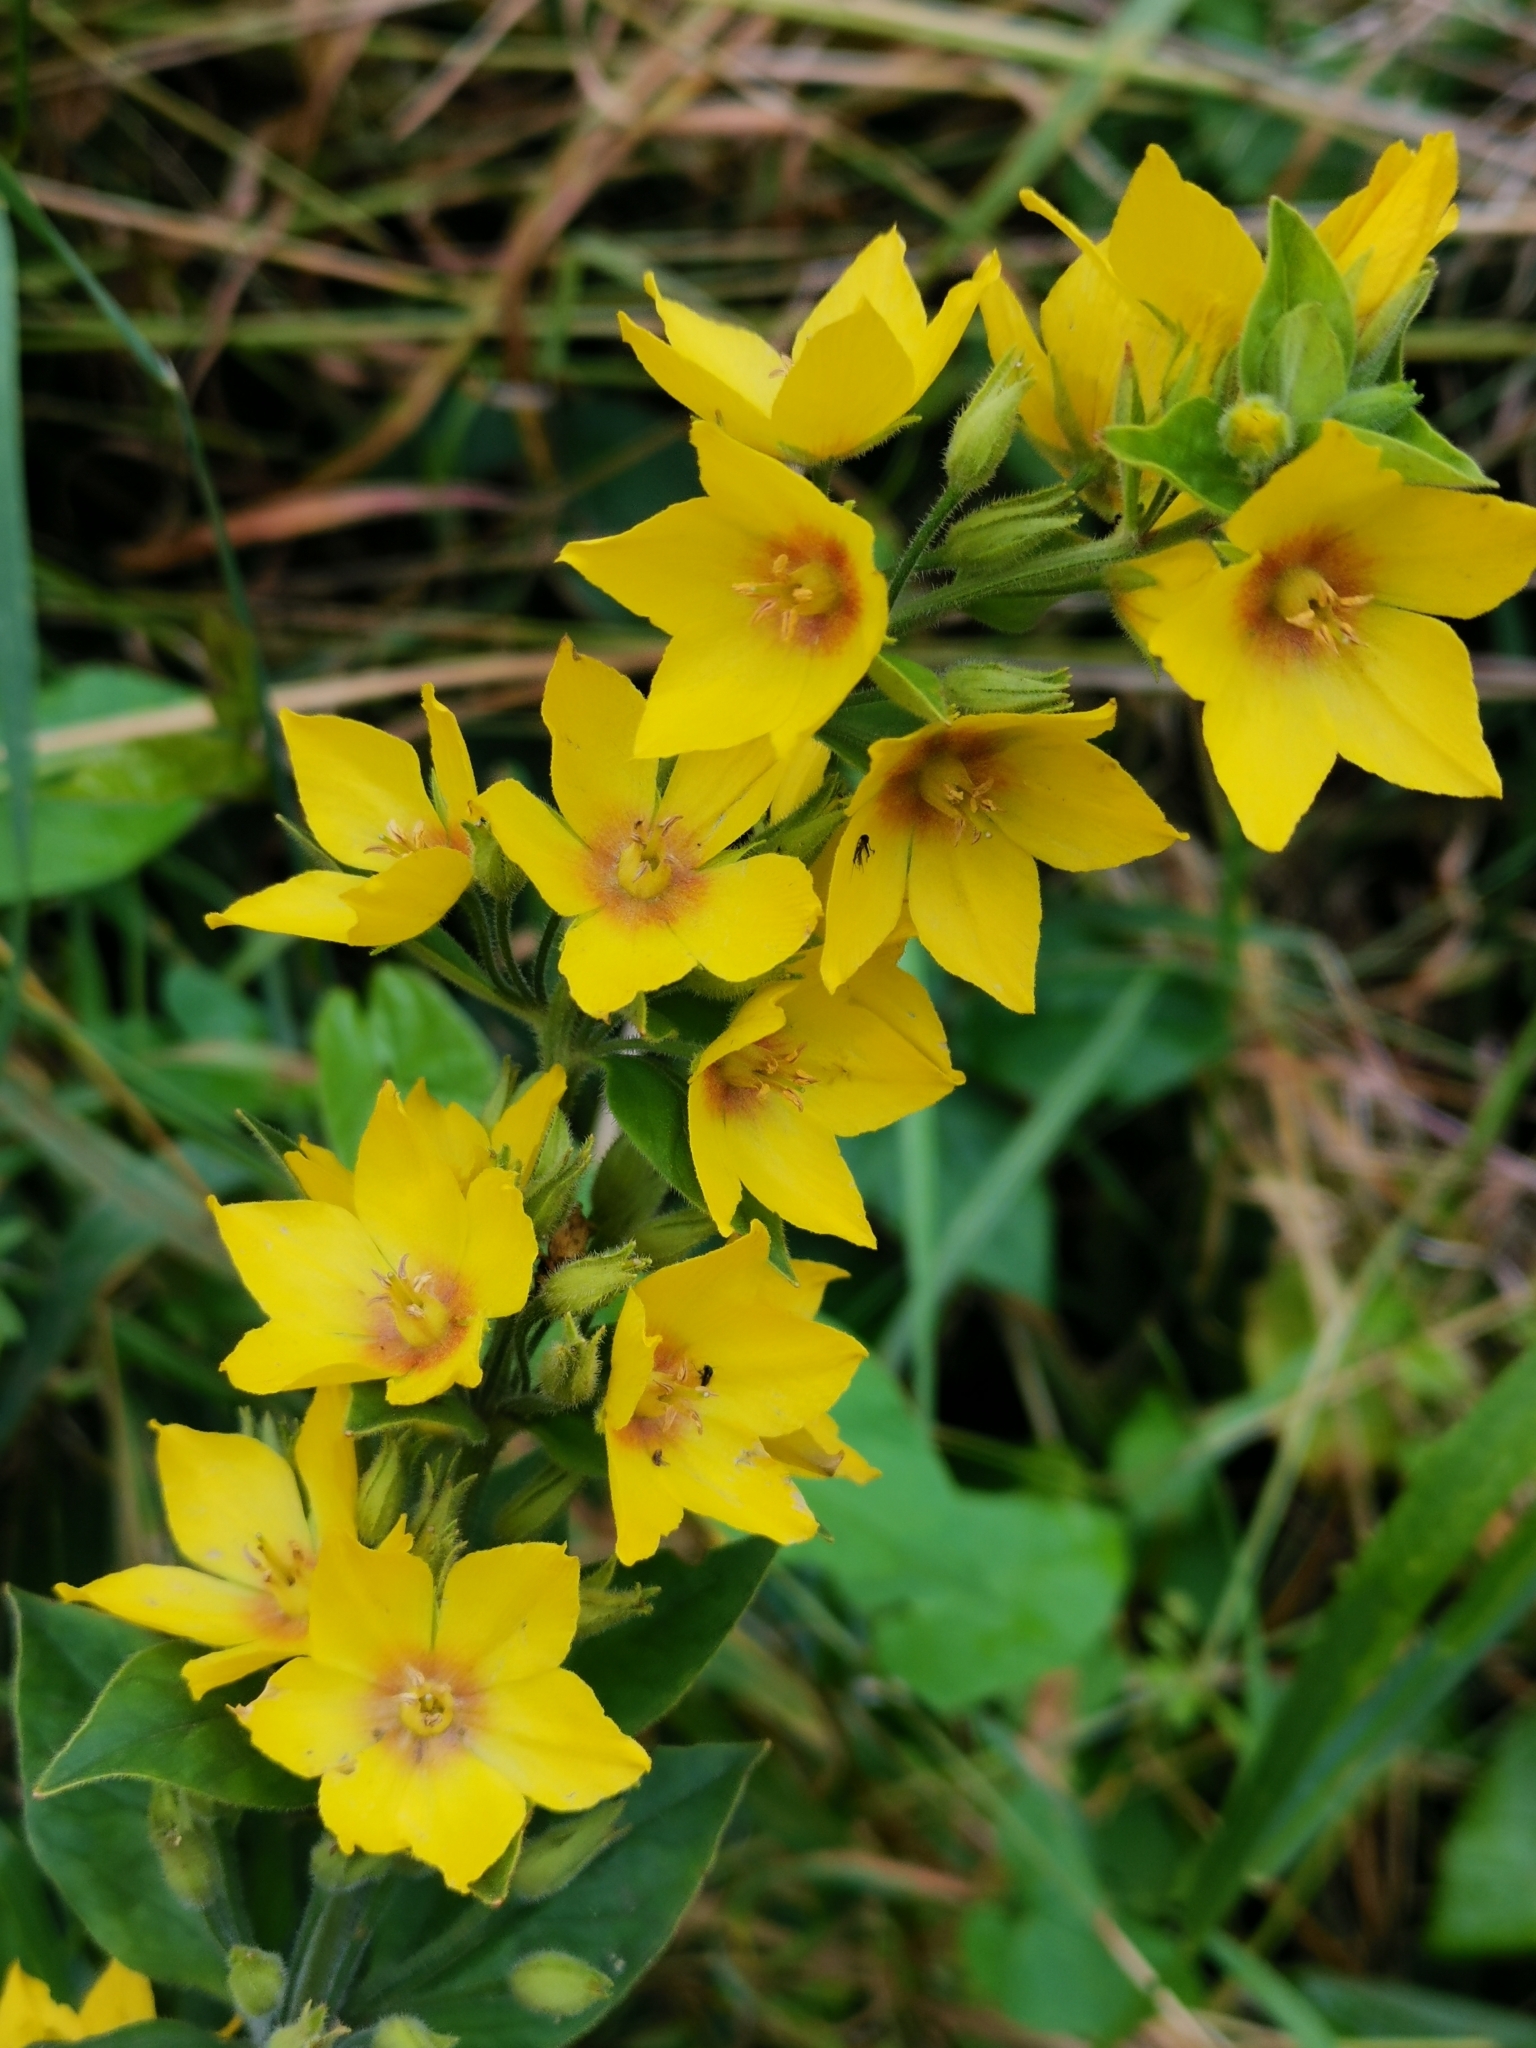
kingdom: Plantae
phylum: Tracheophyta
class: Magnoliopsida
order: Ericales
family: Primulaceae
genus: Lysimachia
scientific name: Lysimachia punctata
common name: Dotted loosestrife
